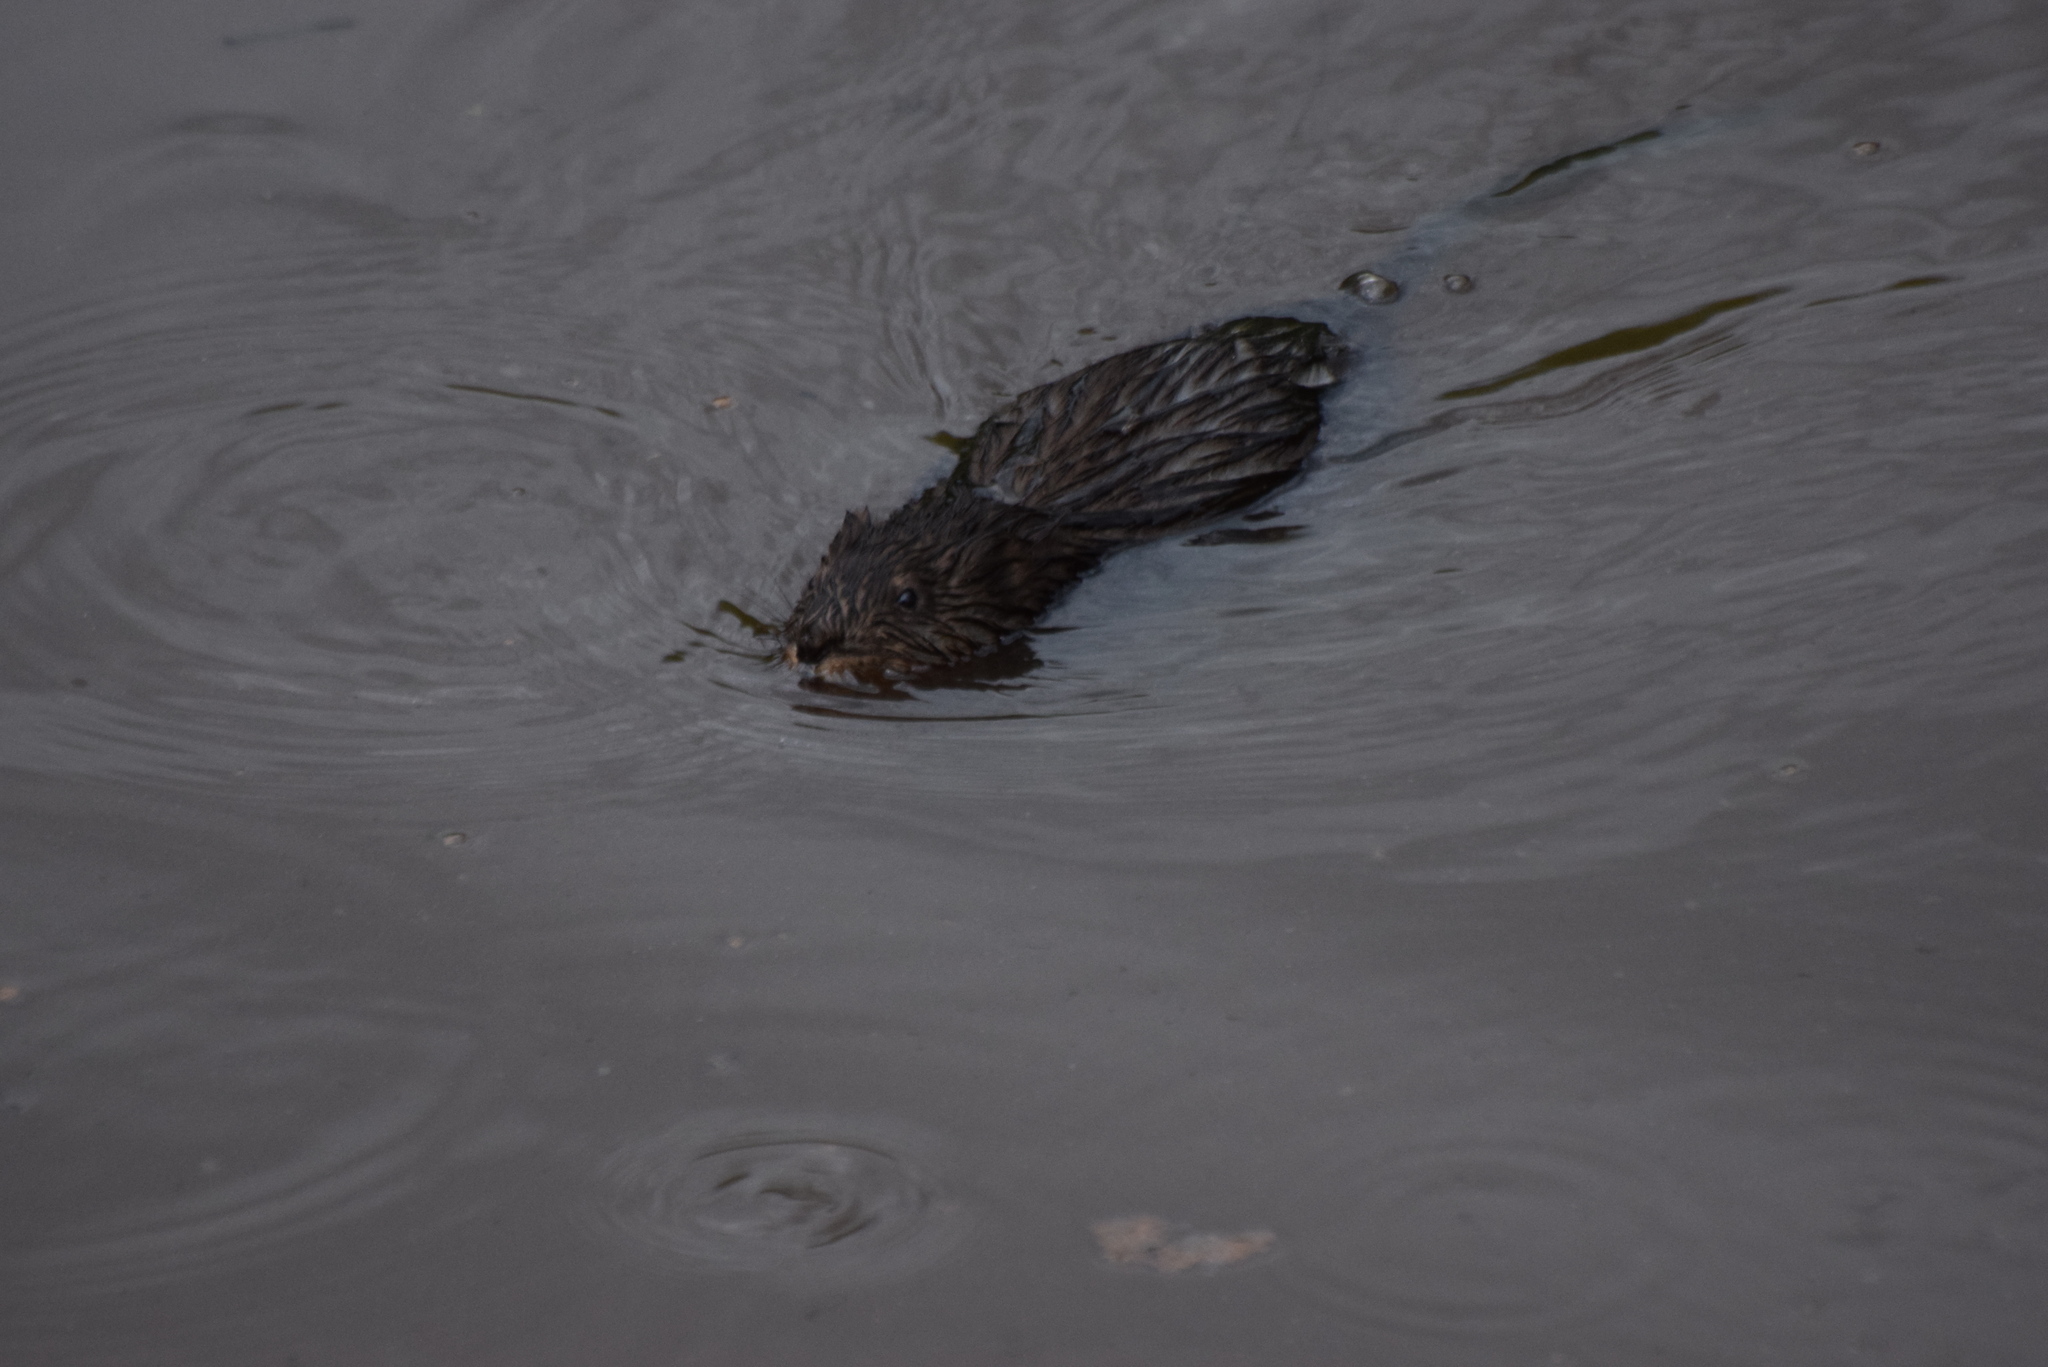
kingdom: Animalia
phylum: Chordata
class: Mammalia
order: Rodentia
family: Cricetidae
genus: Ondatra
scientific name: Ondatra zibethicus
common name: Muskrat
